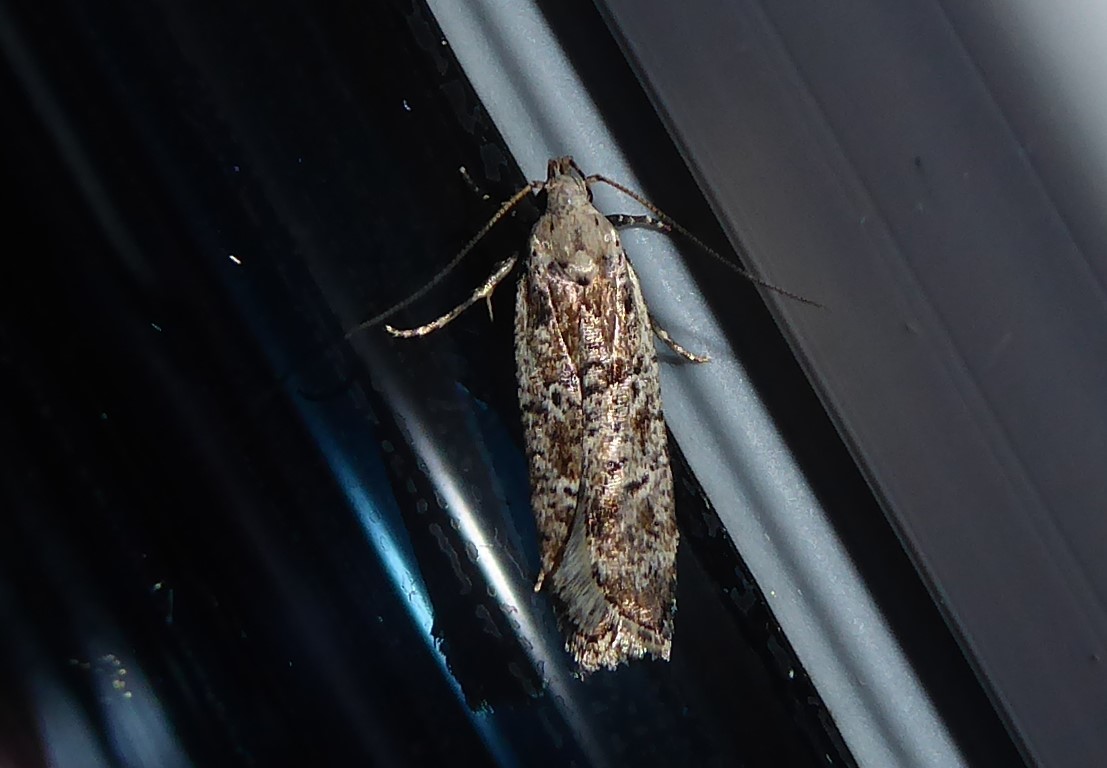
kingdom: Animalia
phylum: Arthropoda
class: Insecta
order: Lepidoptera
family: Gelechiidae
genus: Anisoplaca
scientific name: Anisoplaca achyrota
